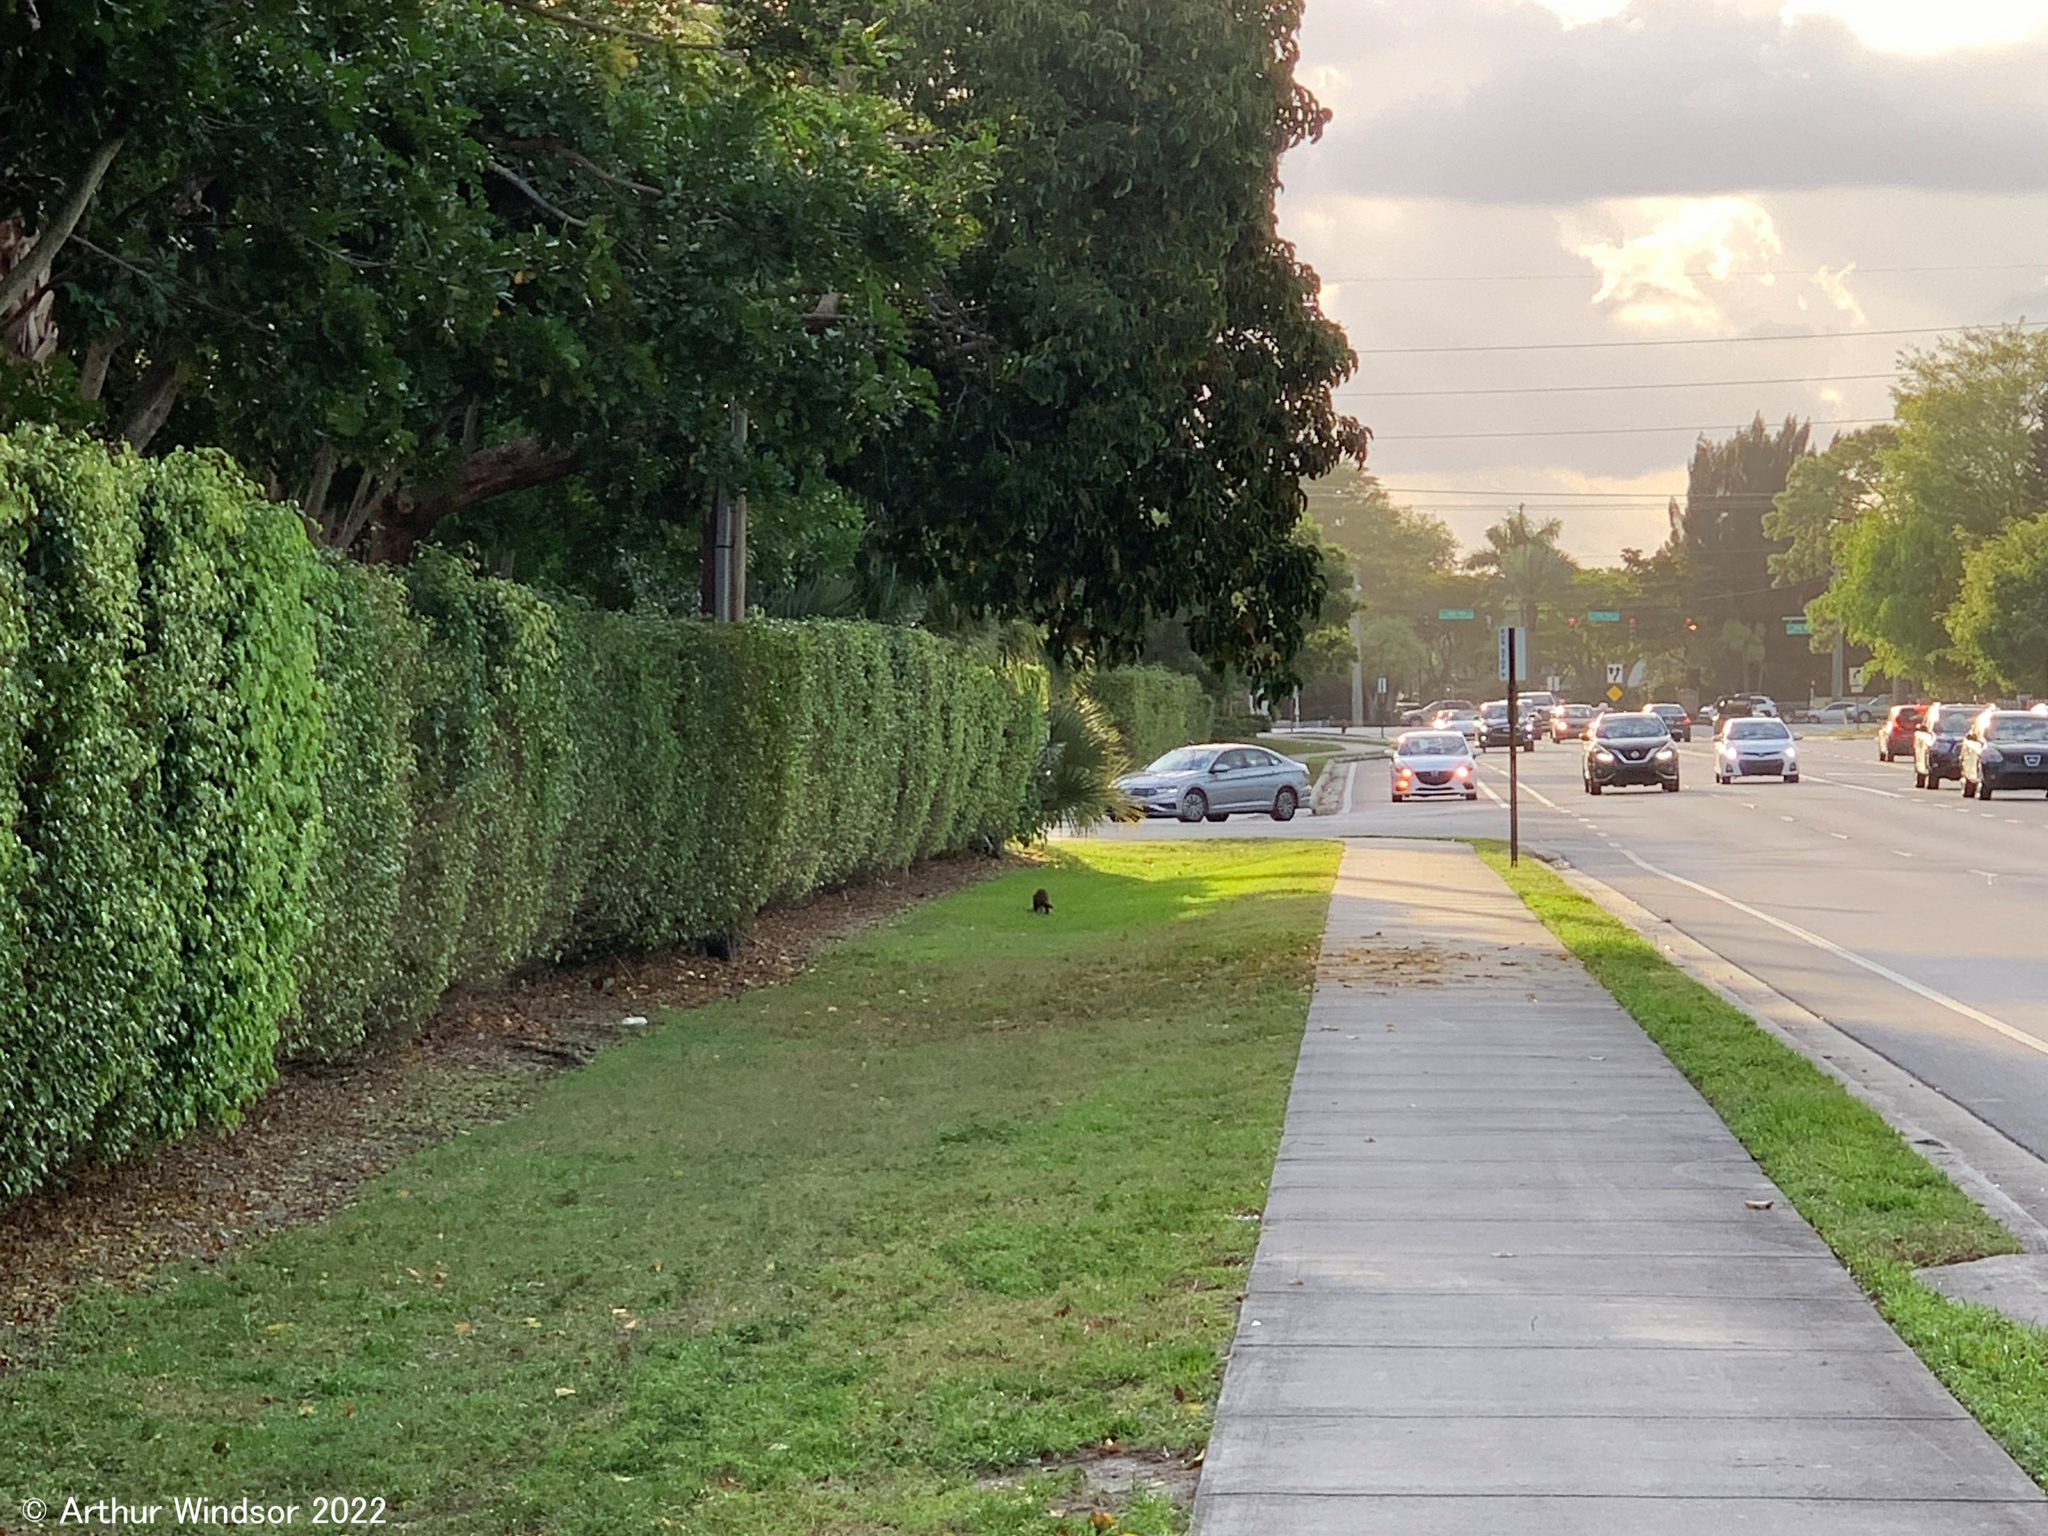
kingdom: Animalia
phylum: Chordata
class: Mammalia
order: Carnivora
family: Procyonidae
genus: Procyon
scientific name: Procyon lotor
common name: Raccoon
